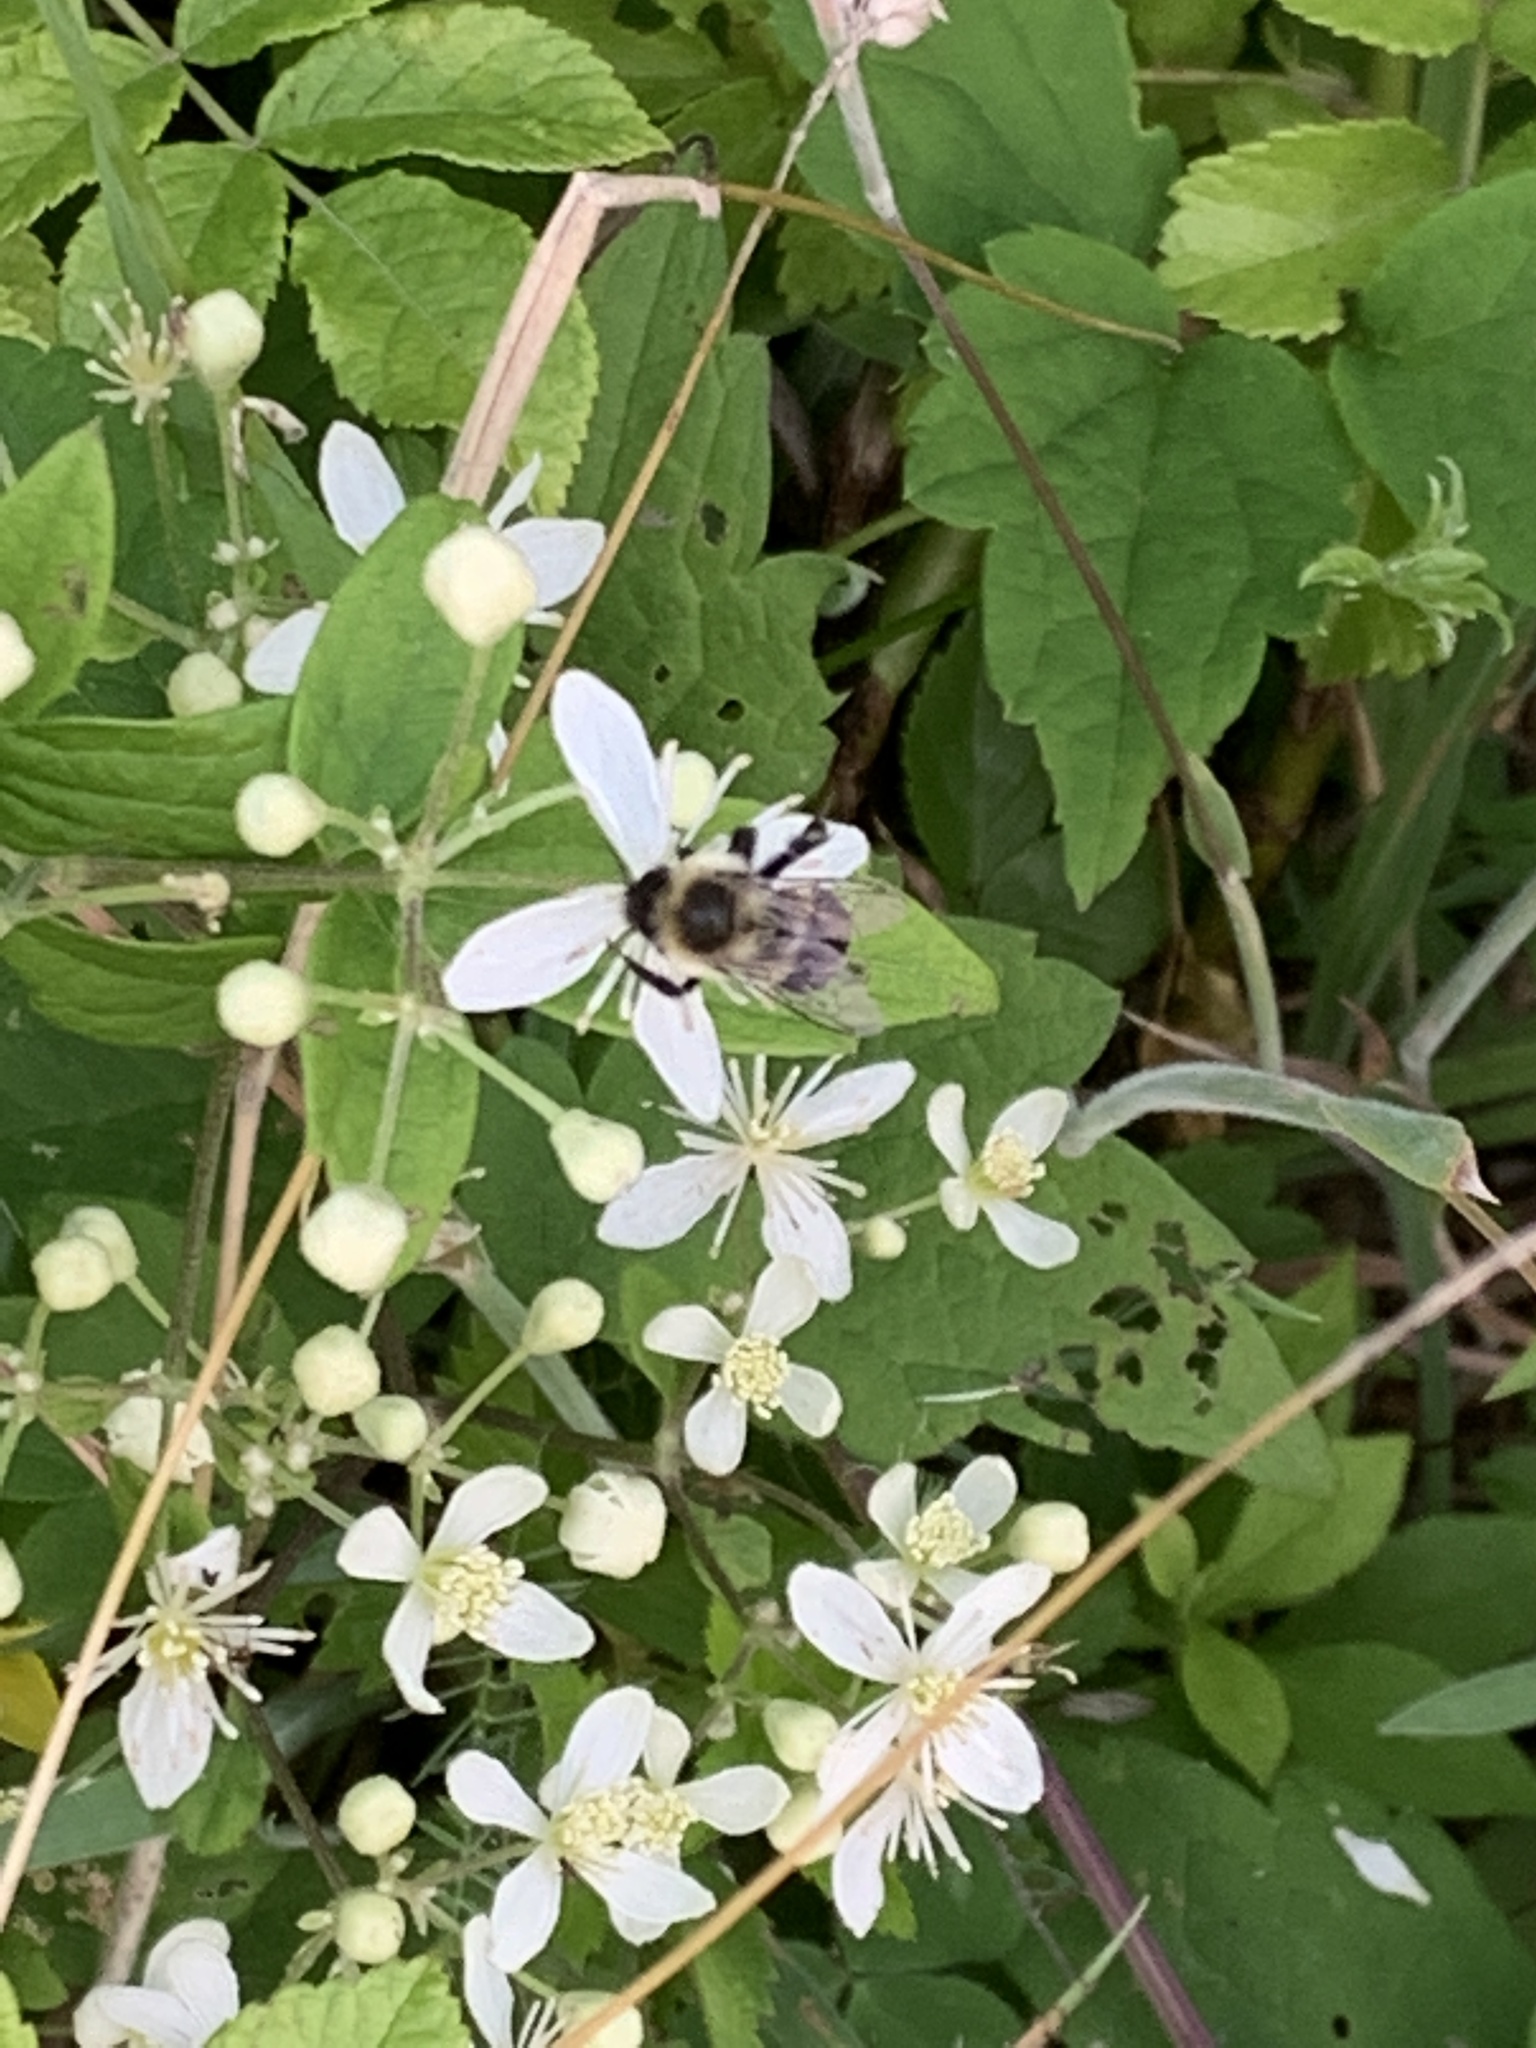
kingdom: Animalia
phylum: Arthropoda
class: Insecta
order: Hymenoptera
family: Apidae
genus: Bombus
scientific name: Bombus impatiens
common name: Common eastern bumble bee
